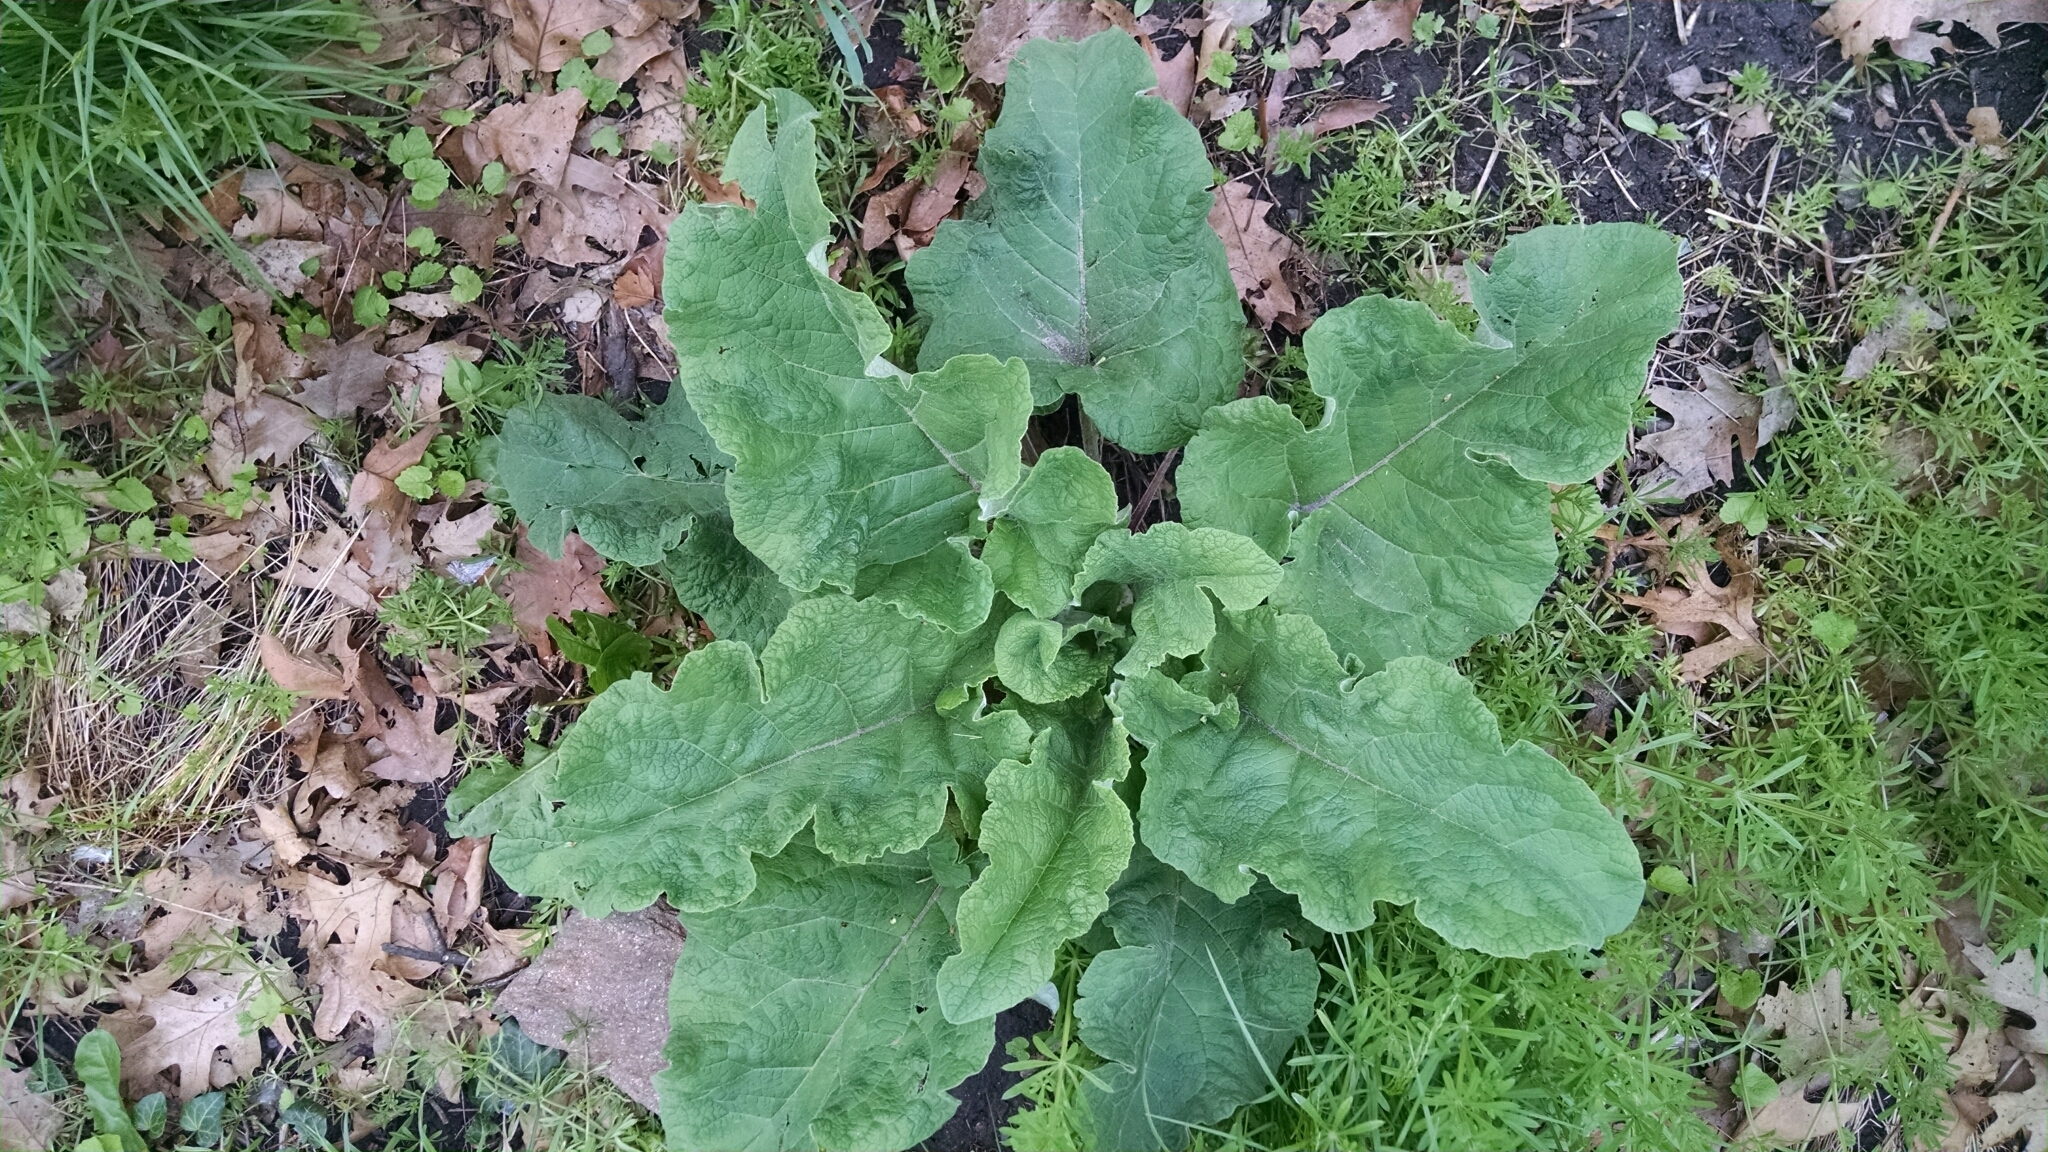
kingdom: Plantae
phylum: Tracheophyta
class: Magnoliopsida
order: Asterales
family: Asteraceae
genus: Arctium
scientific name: Arctium
